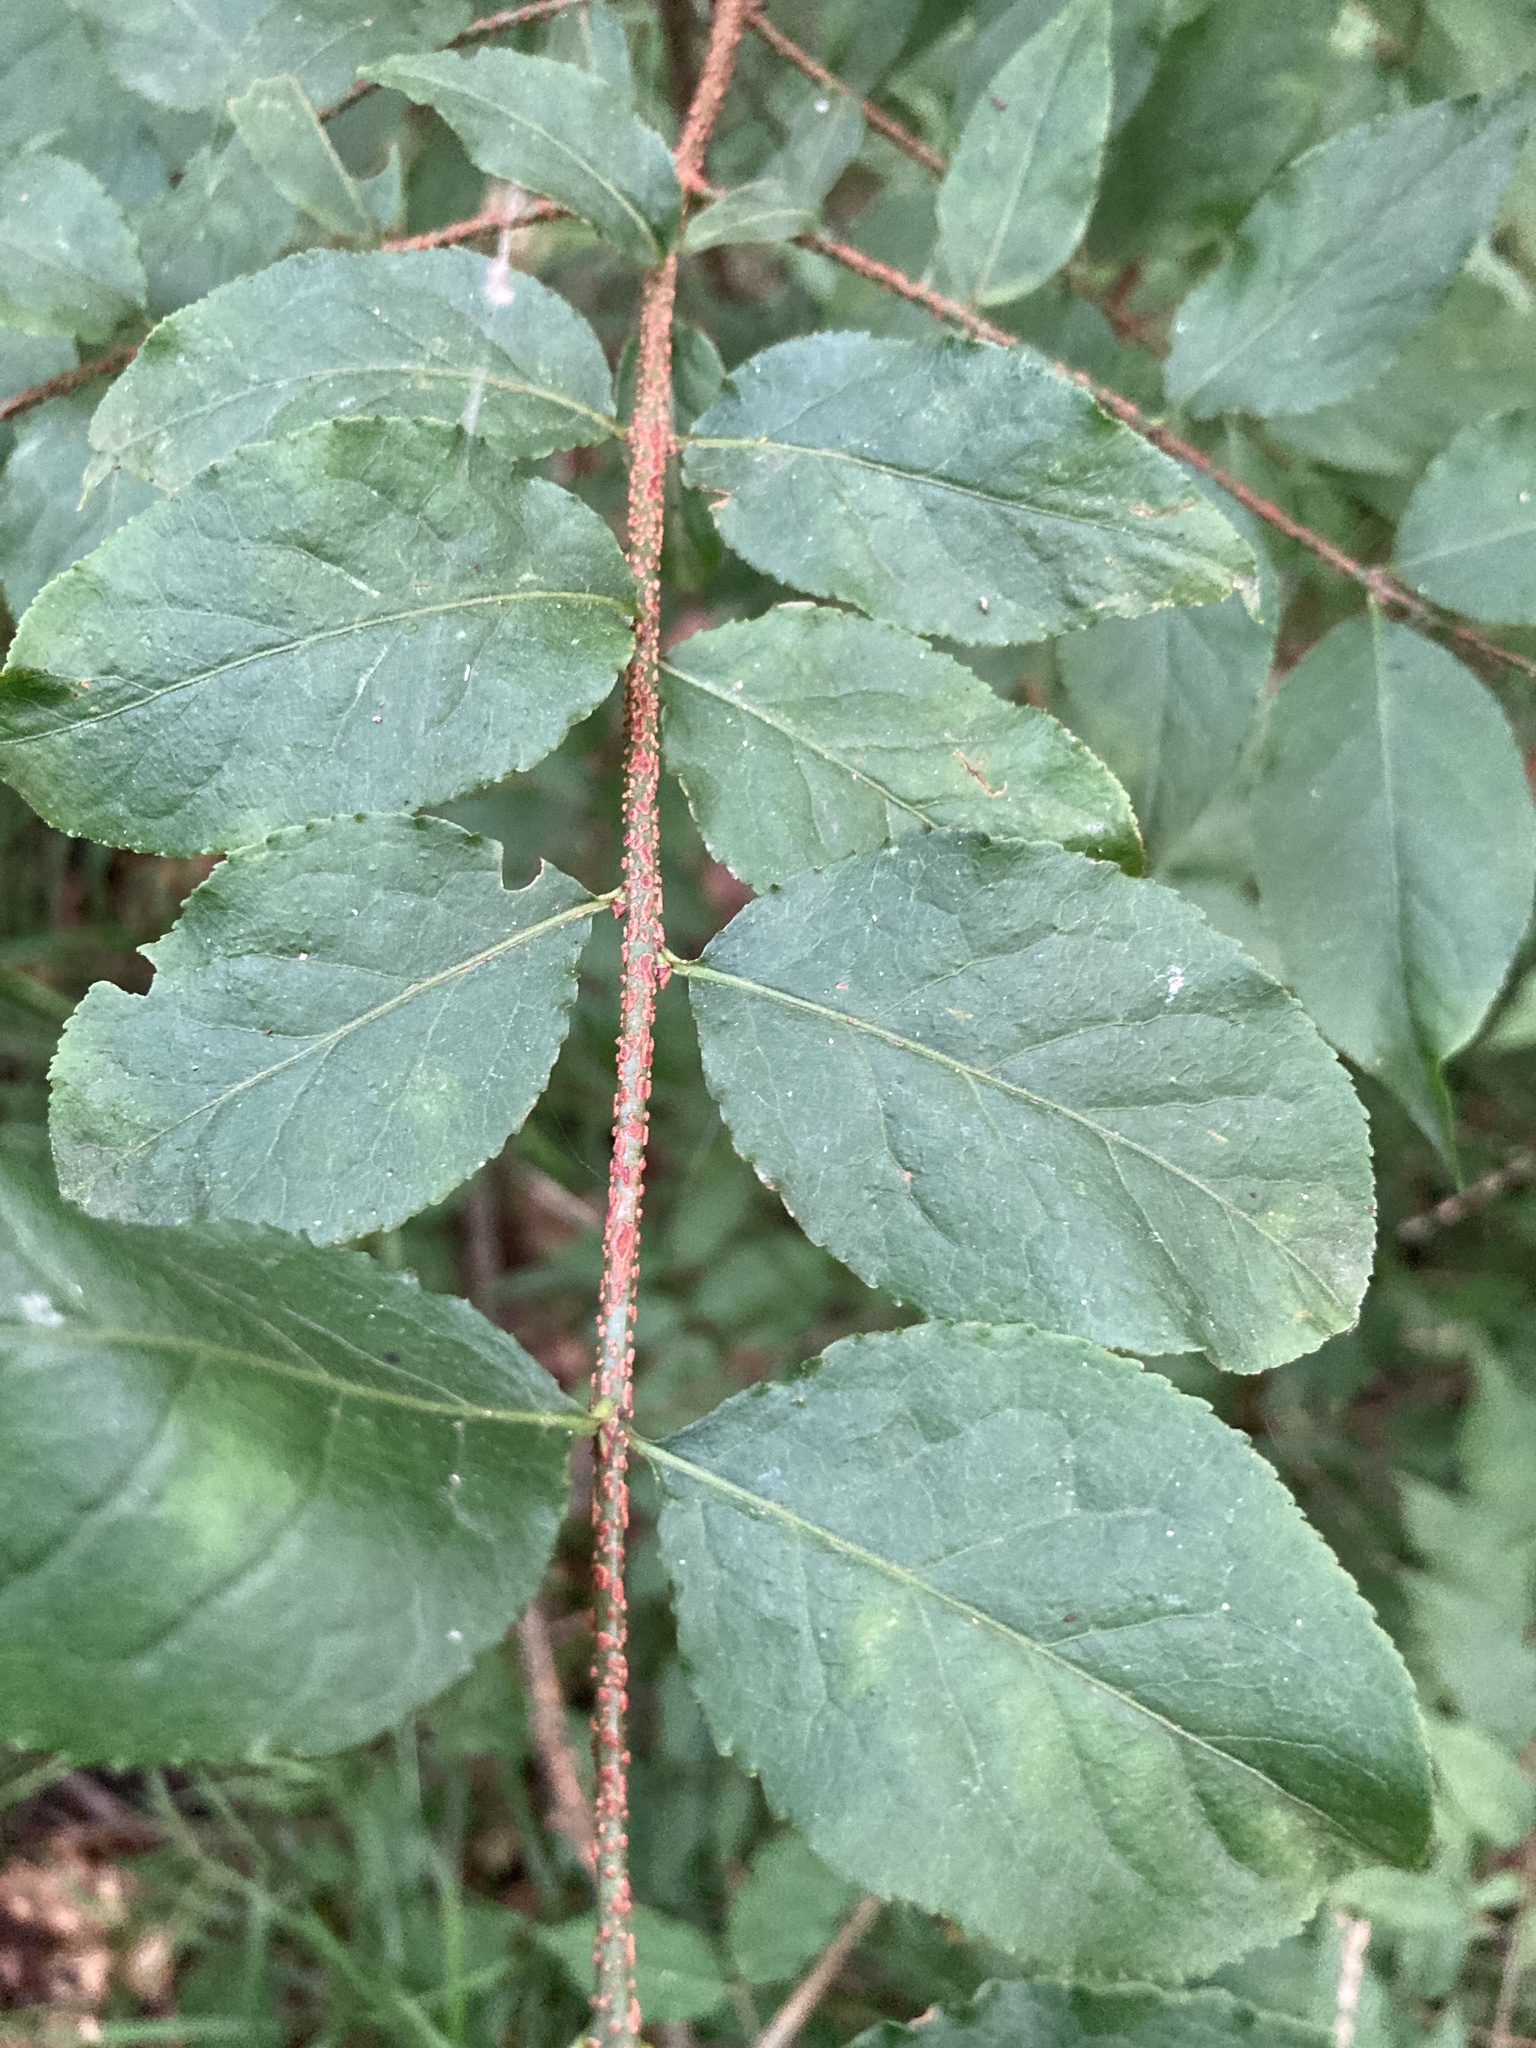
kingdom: Plantae
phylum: Tracheophyta
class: Magnoliopsida
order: Celastrales
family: Celastraceae
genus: Euonymus
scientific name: Euonymus verrucosus
